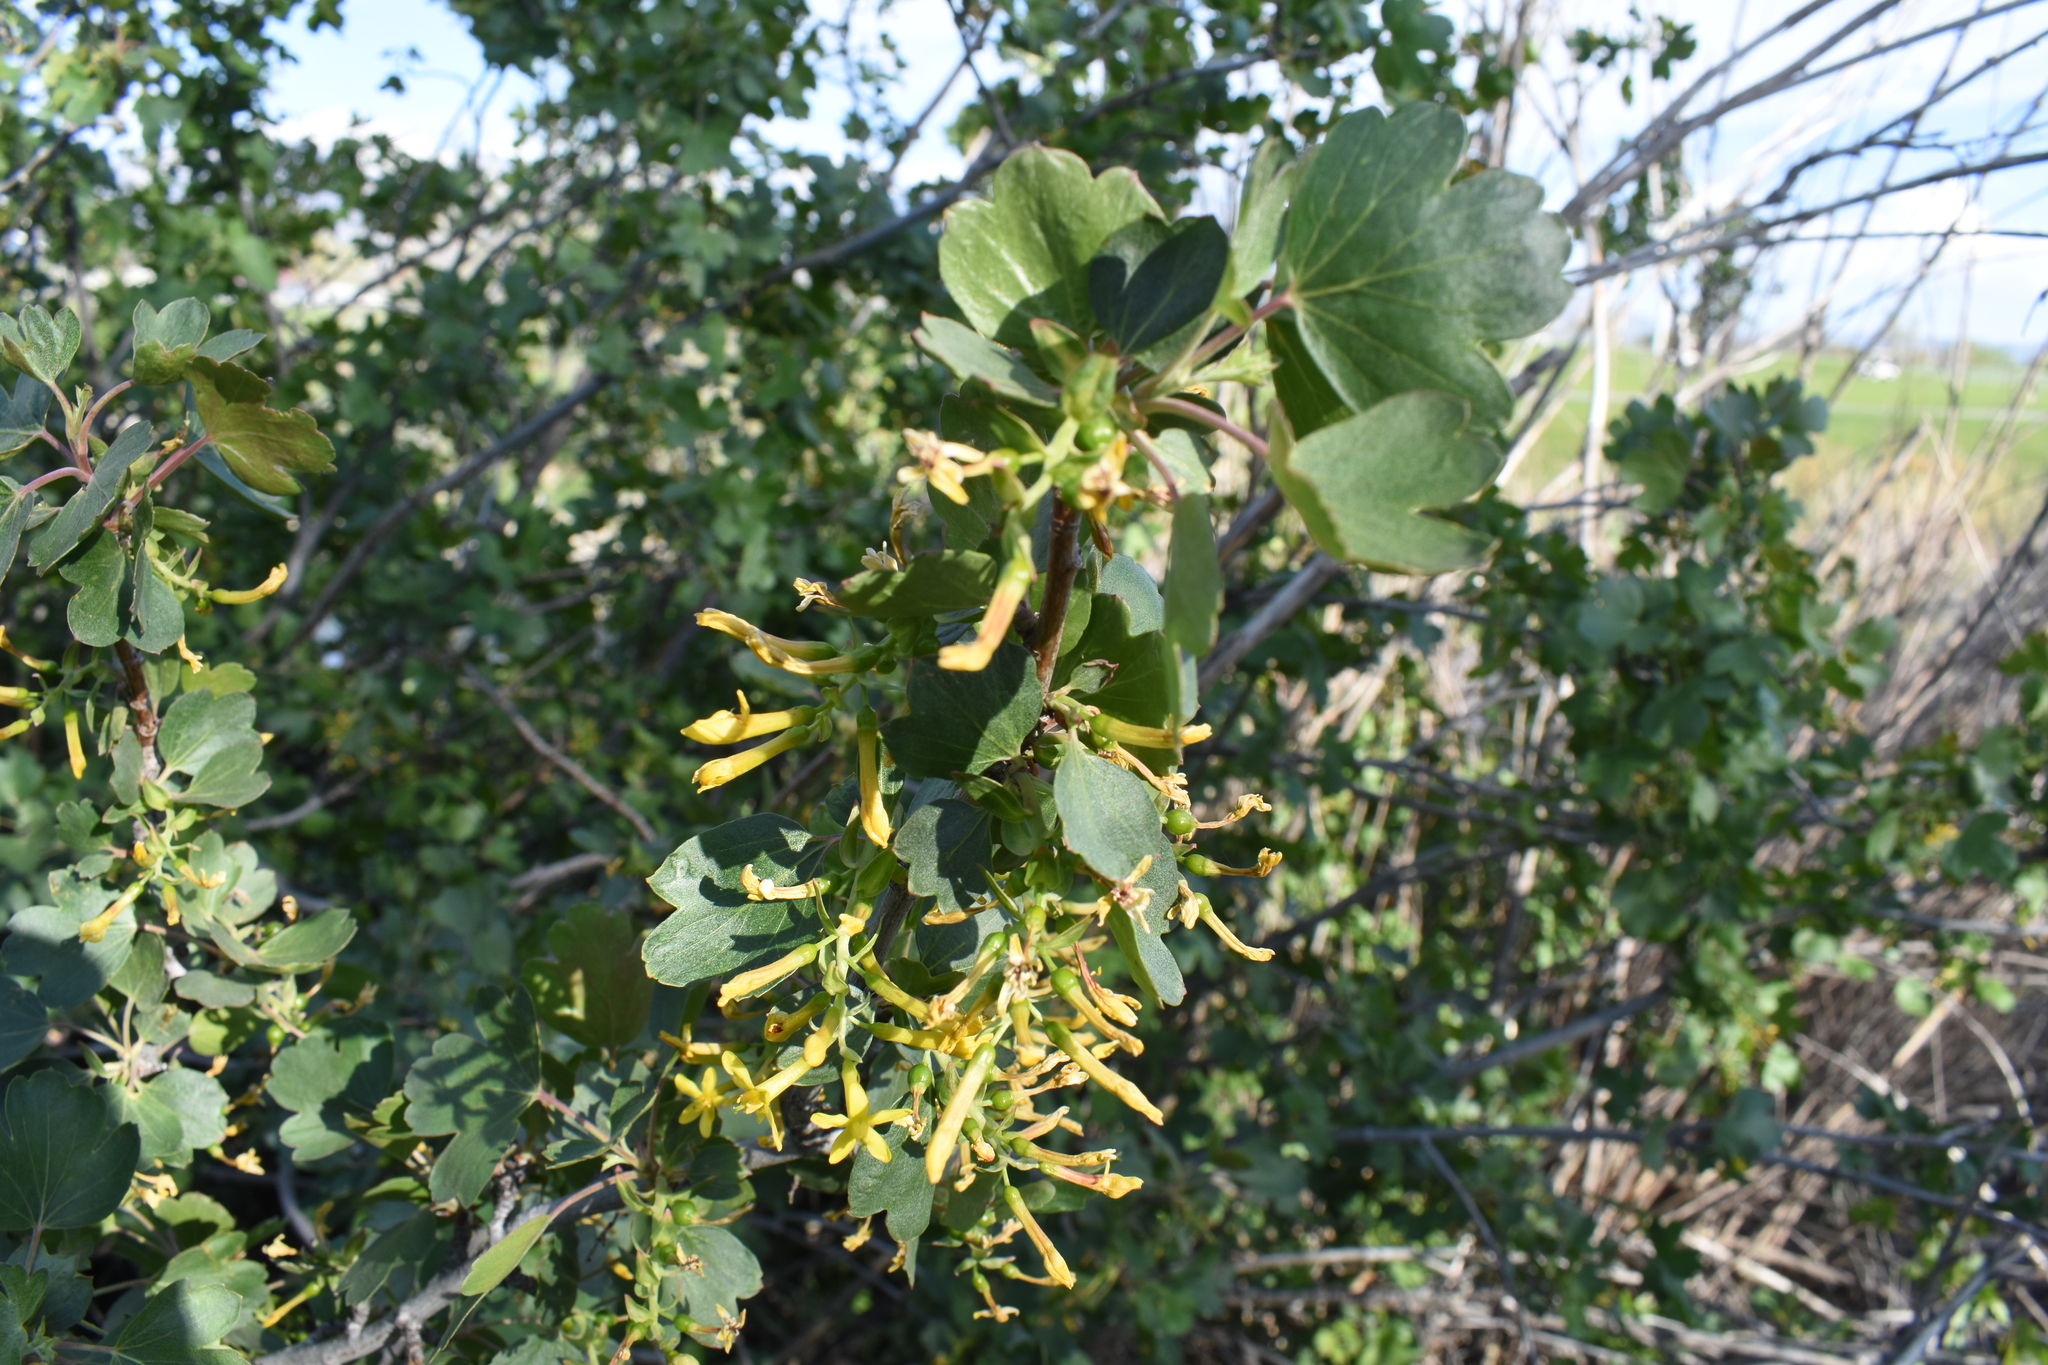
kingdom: Plantae
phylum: Tracheophyta
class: Magnoliopsida
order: Saxifragales
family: Grossulariaceae
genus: Ribes
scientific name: Ribes aureum
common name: Golden currant
